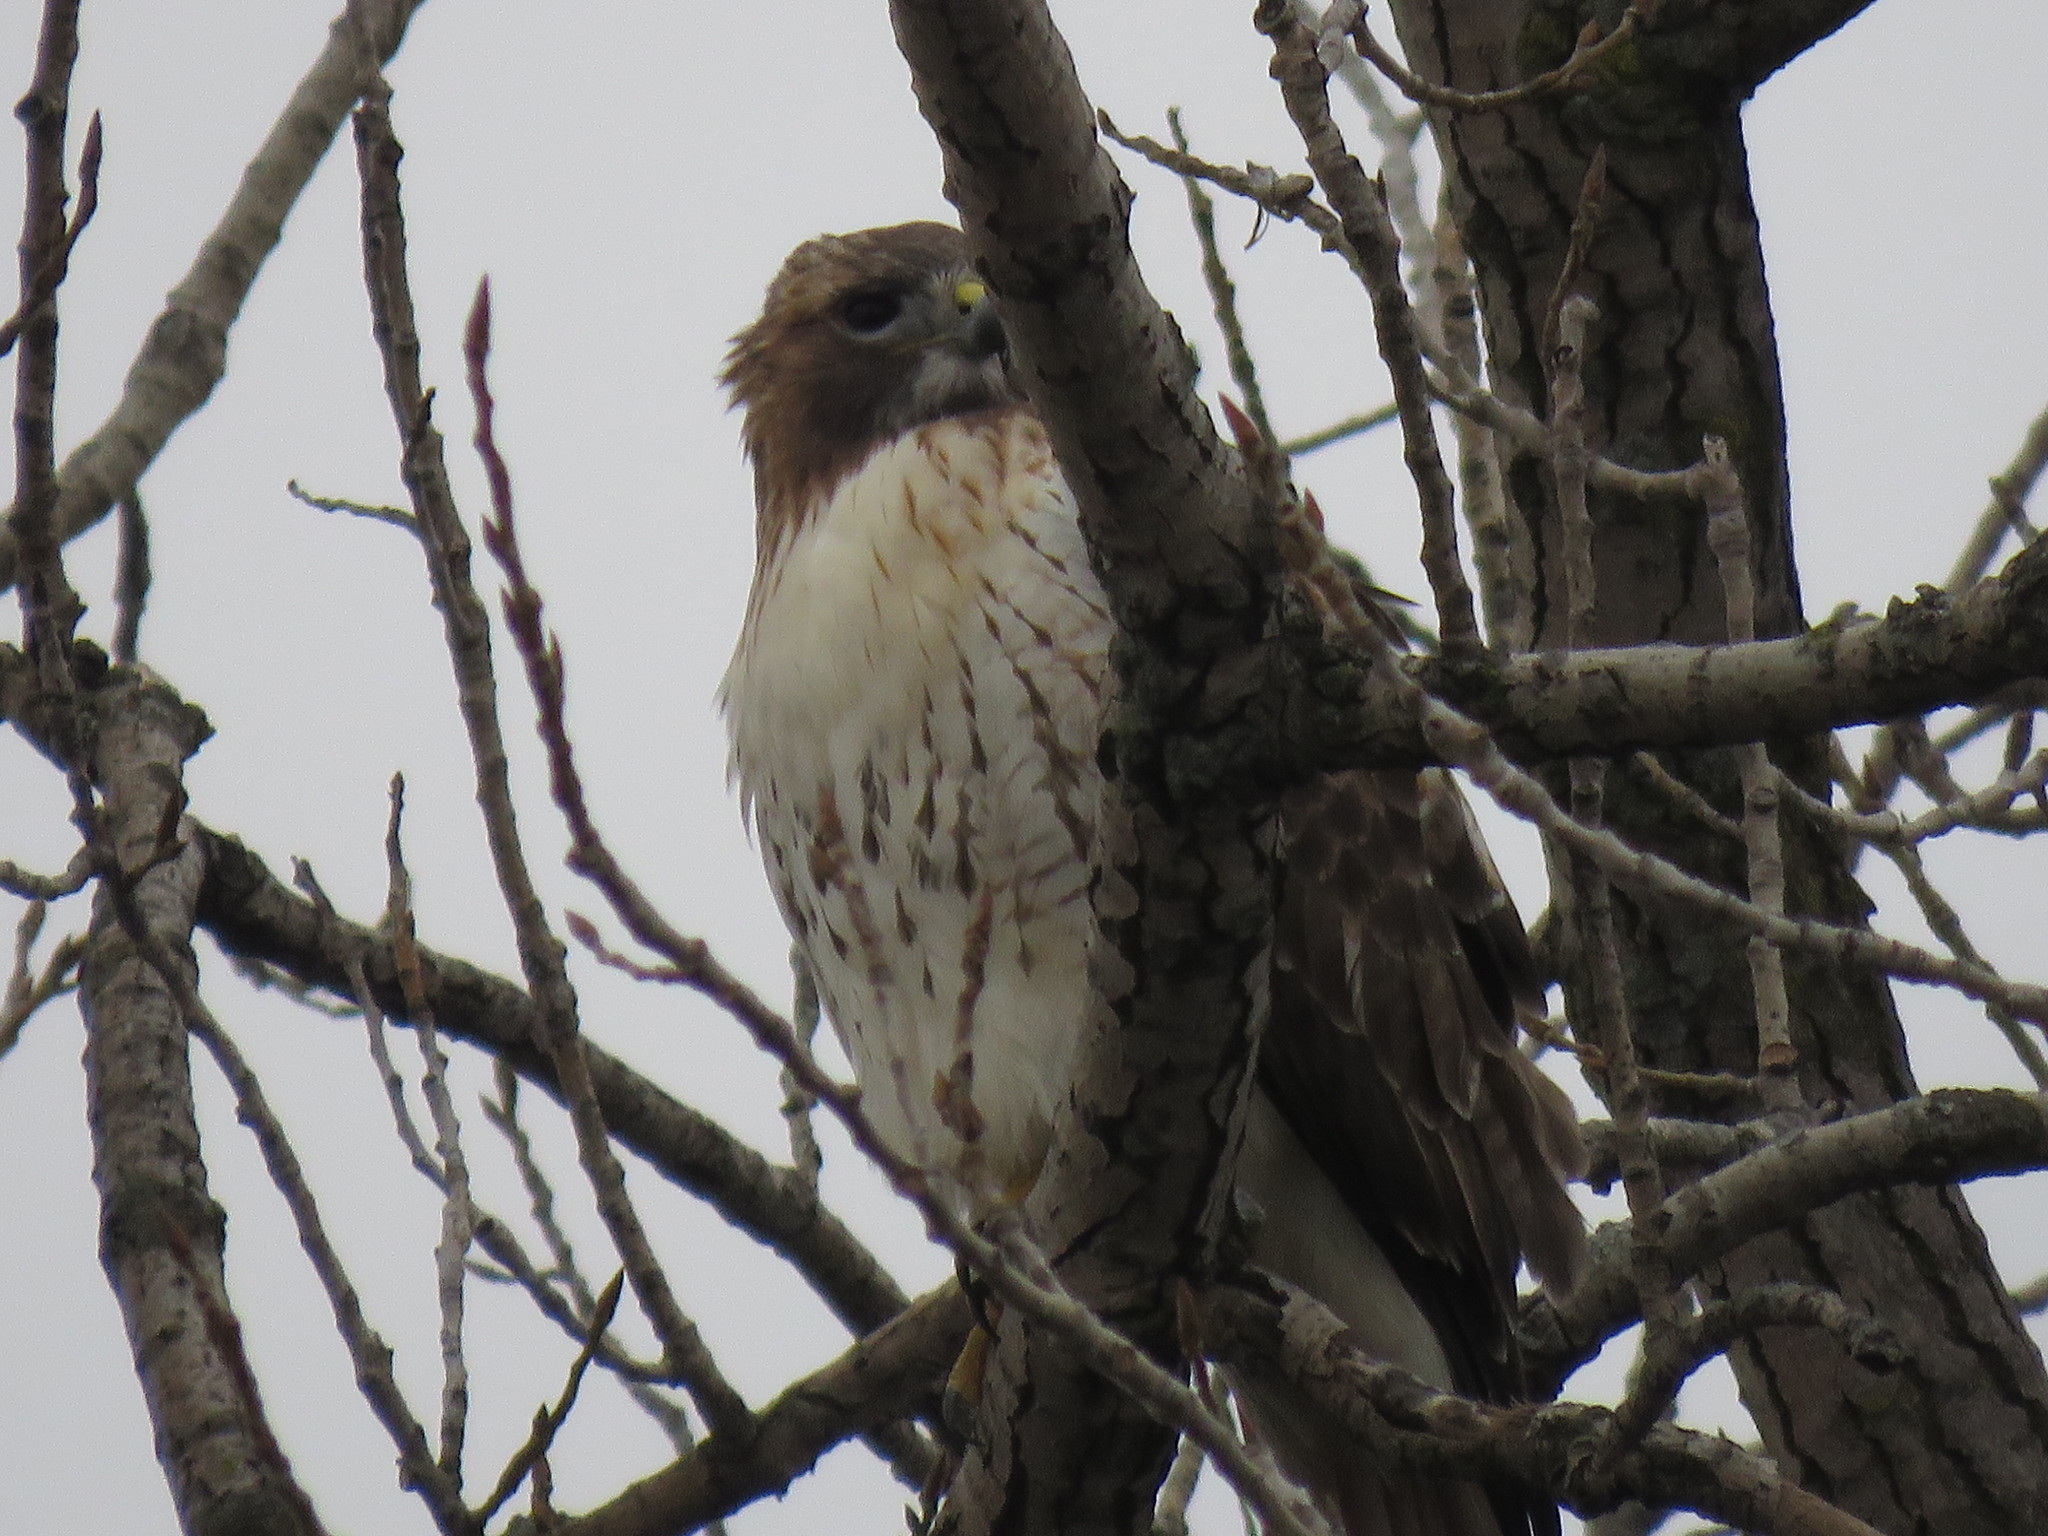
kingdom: Animalia
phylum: Chordata
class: Aves
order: Accipitriformes
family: Accipitridae
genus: Buteo
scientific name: Buteo jamaicensis
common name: Red-tailed hawk
